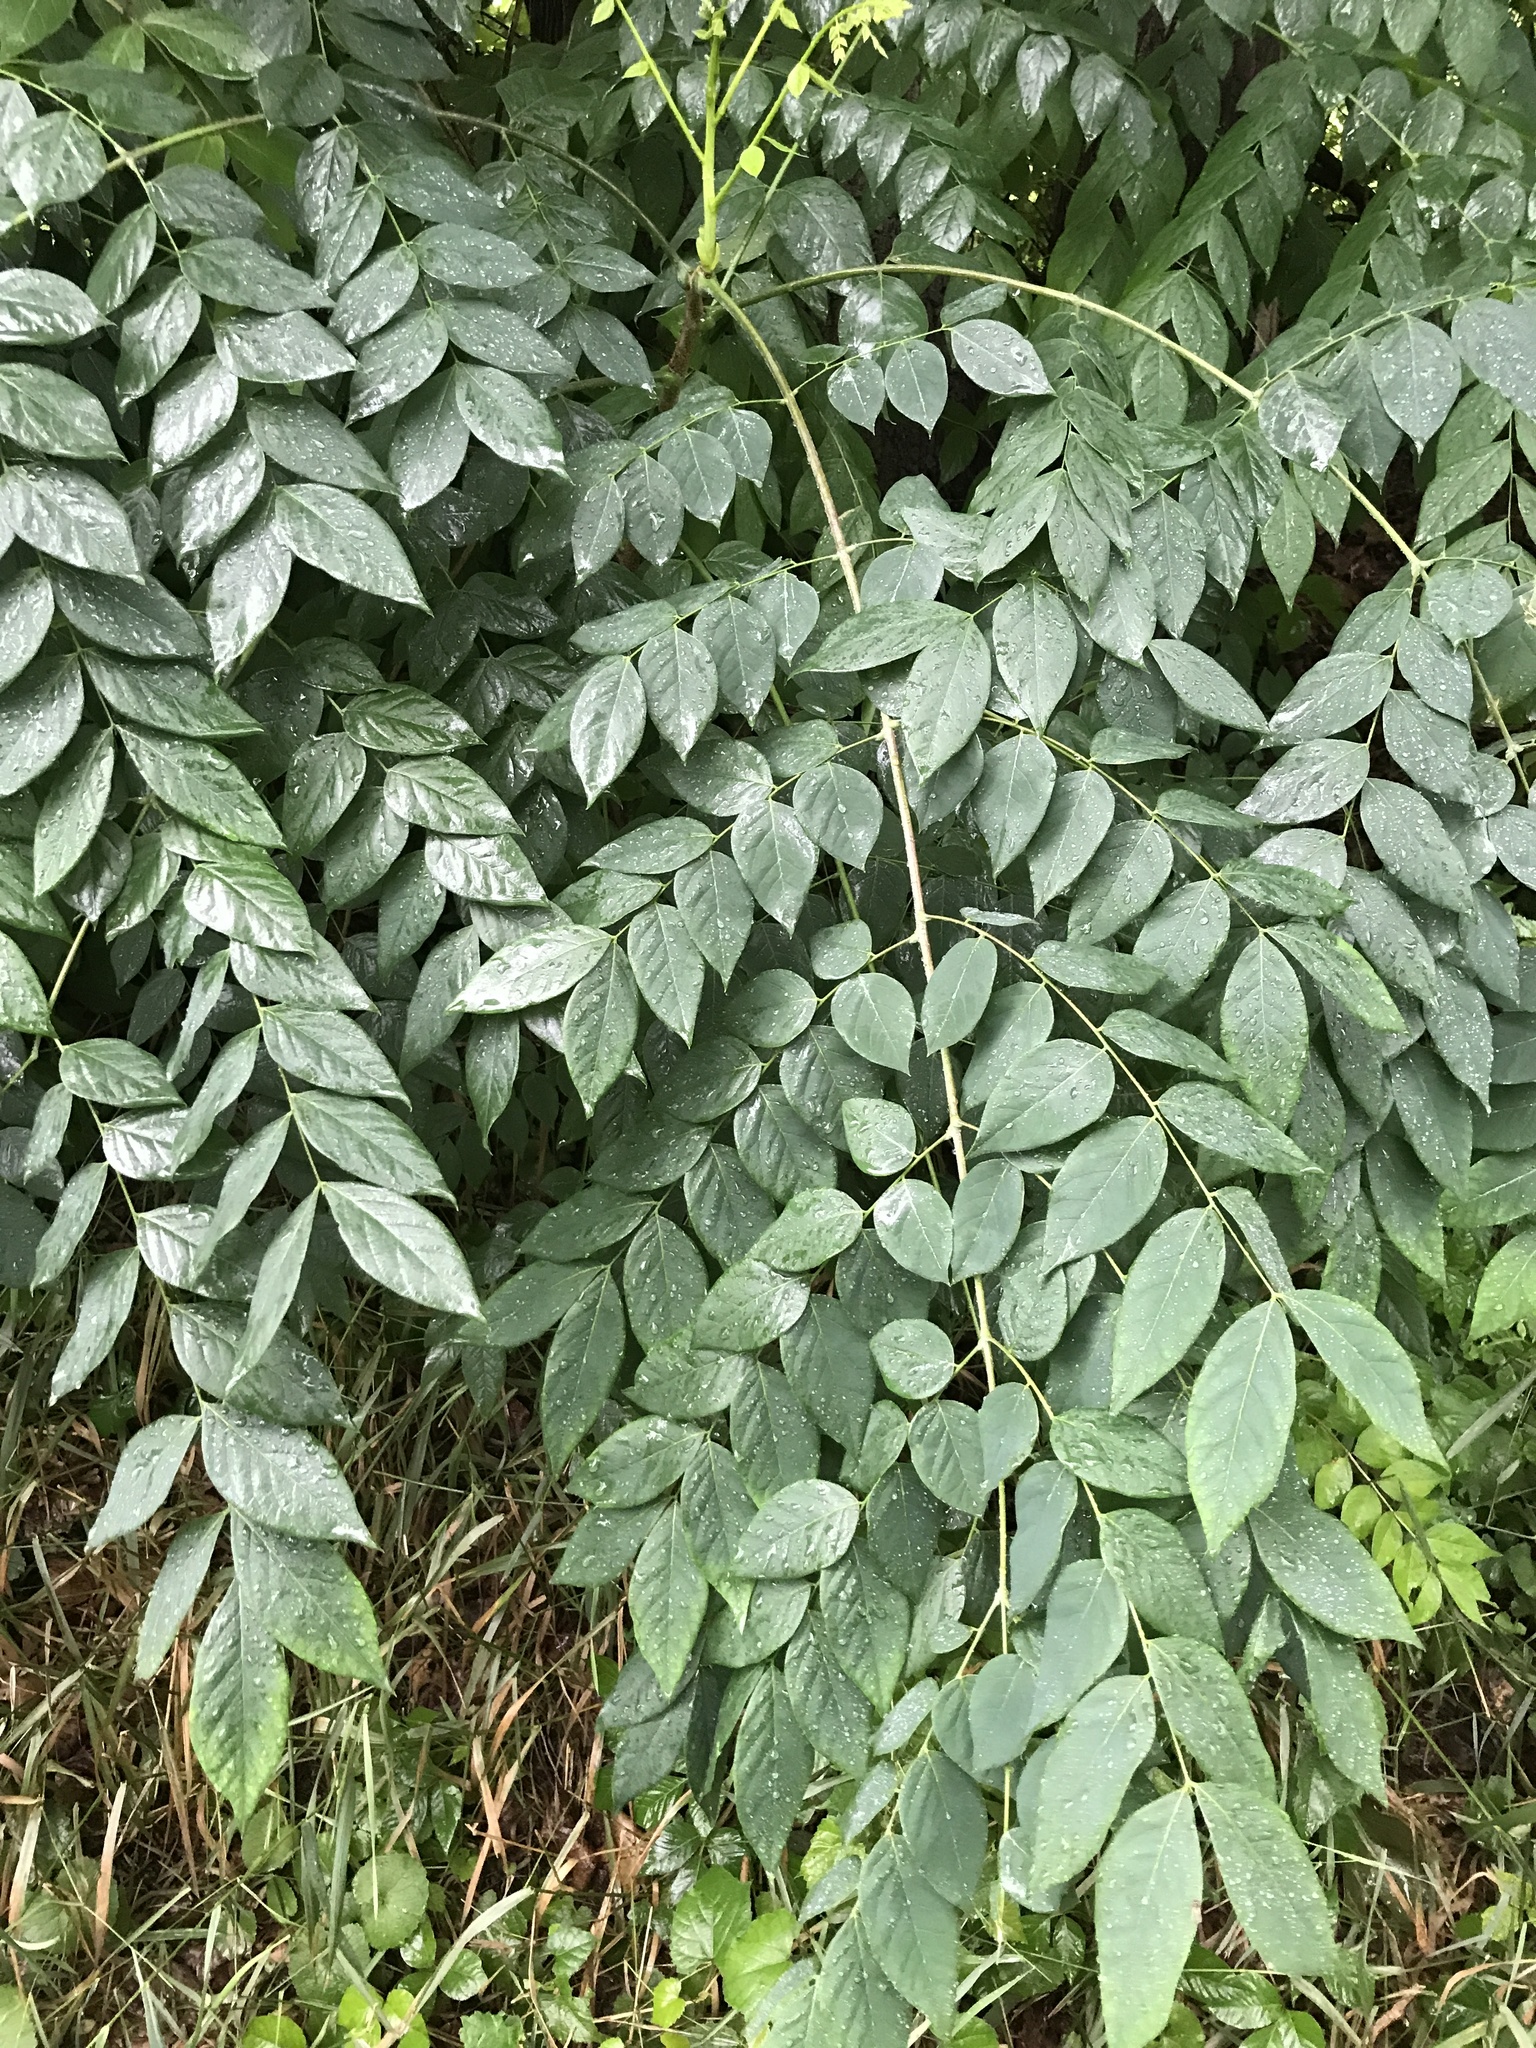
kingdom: Plantae
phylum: Tracheophyta
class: Magnoliopsida
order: Fabales
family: Fabaceae
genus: Gymnocladus
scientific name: Gymnocladus dioicus
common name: Kentucky coffee-tree
